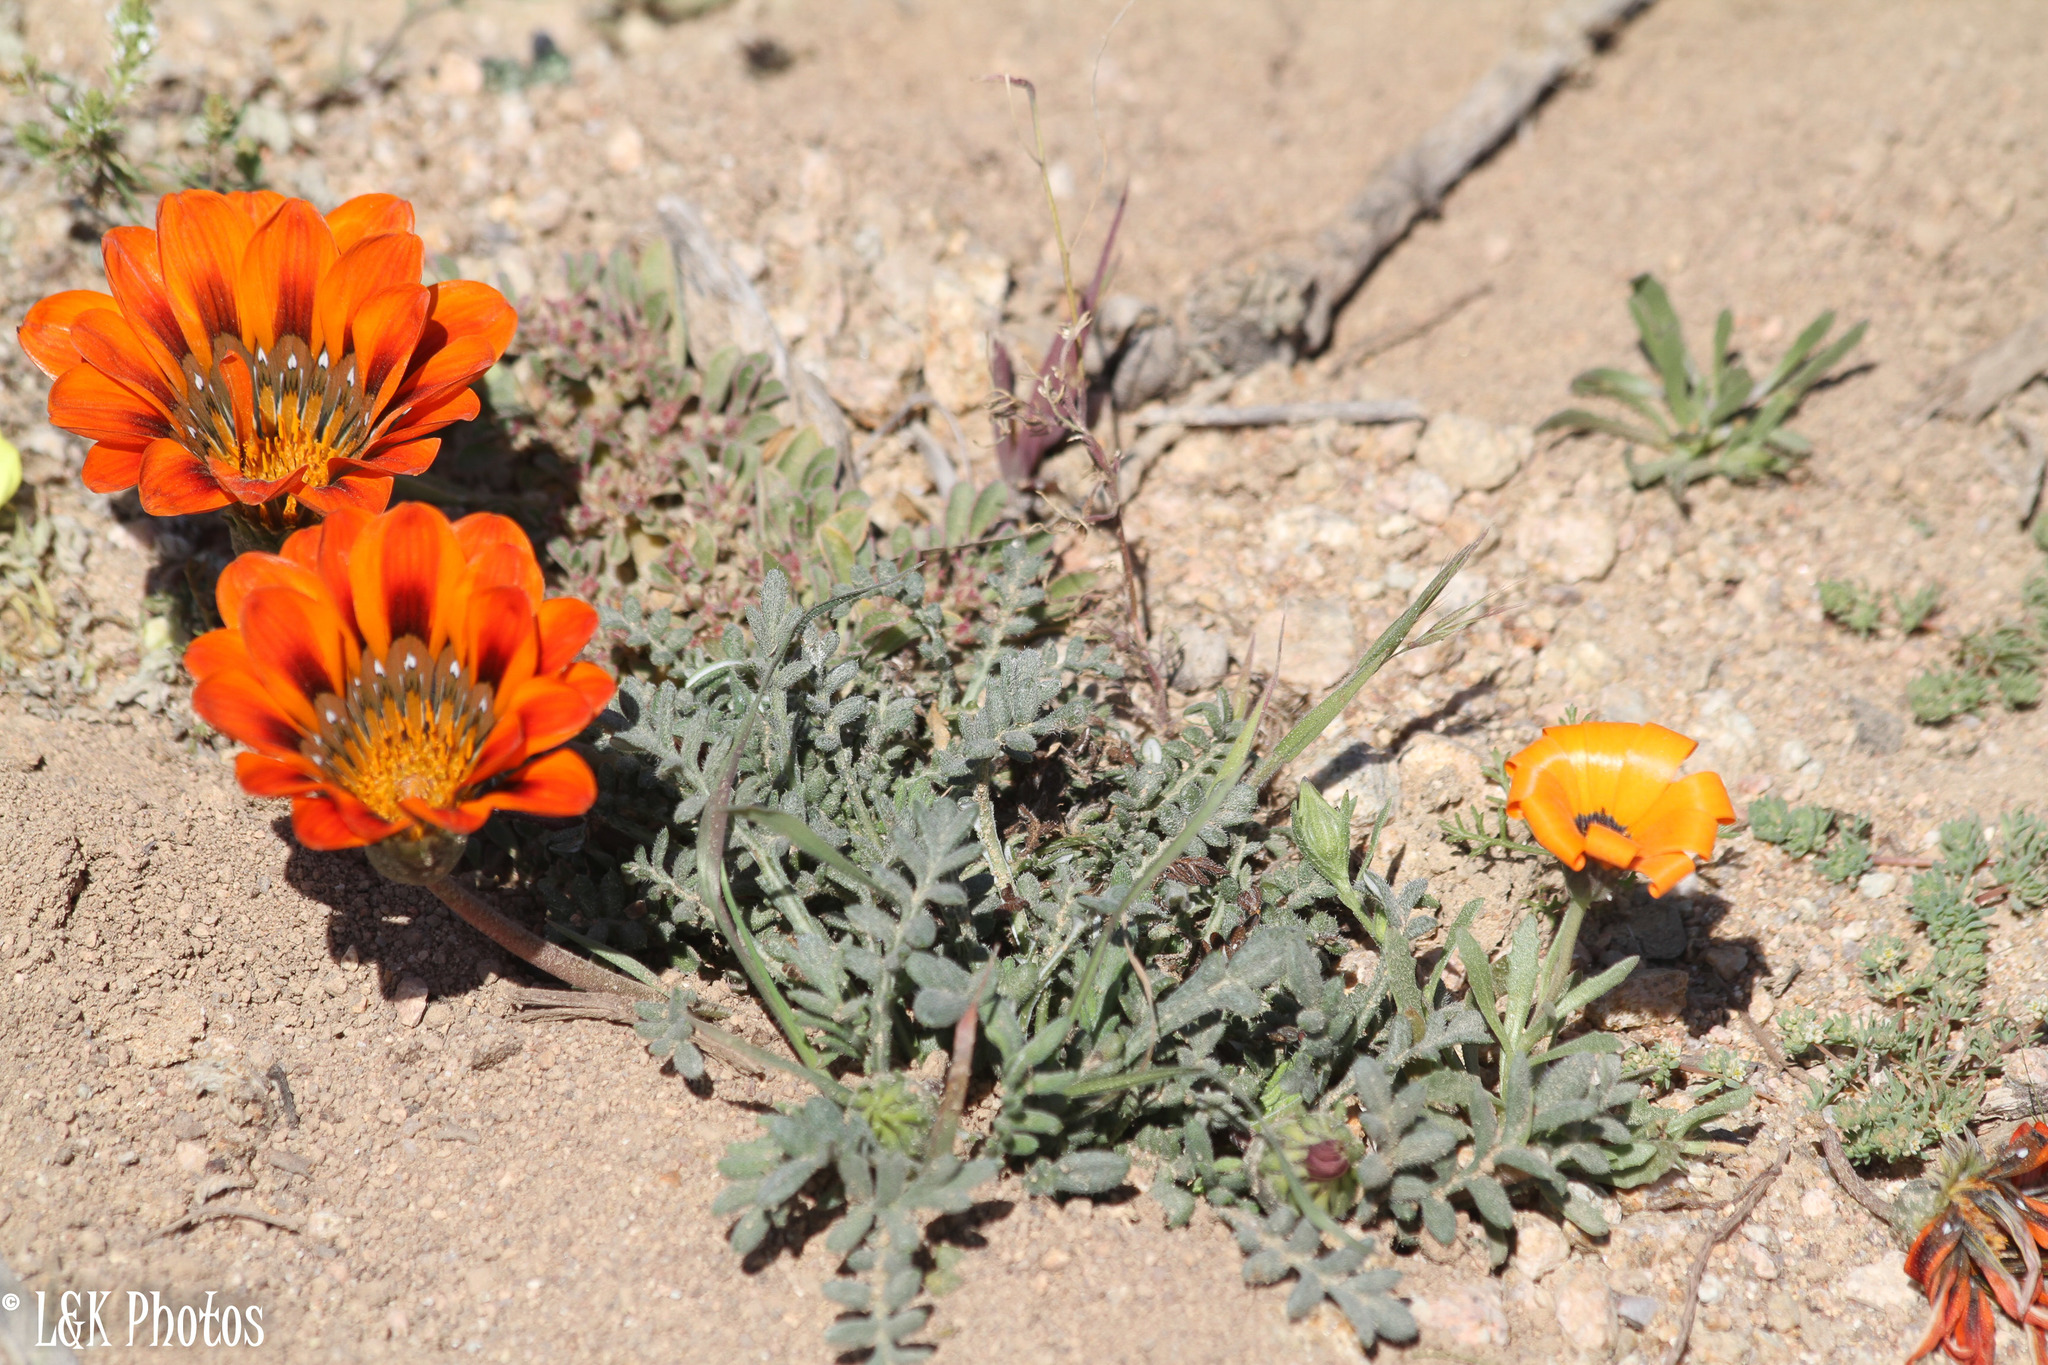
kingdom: Plantae
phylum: Tracheophyta
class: Magnoliopsida
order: Asterales
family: Asteraceae
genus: Gazania
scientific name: Gazania leiopoda
